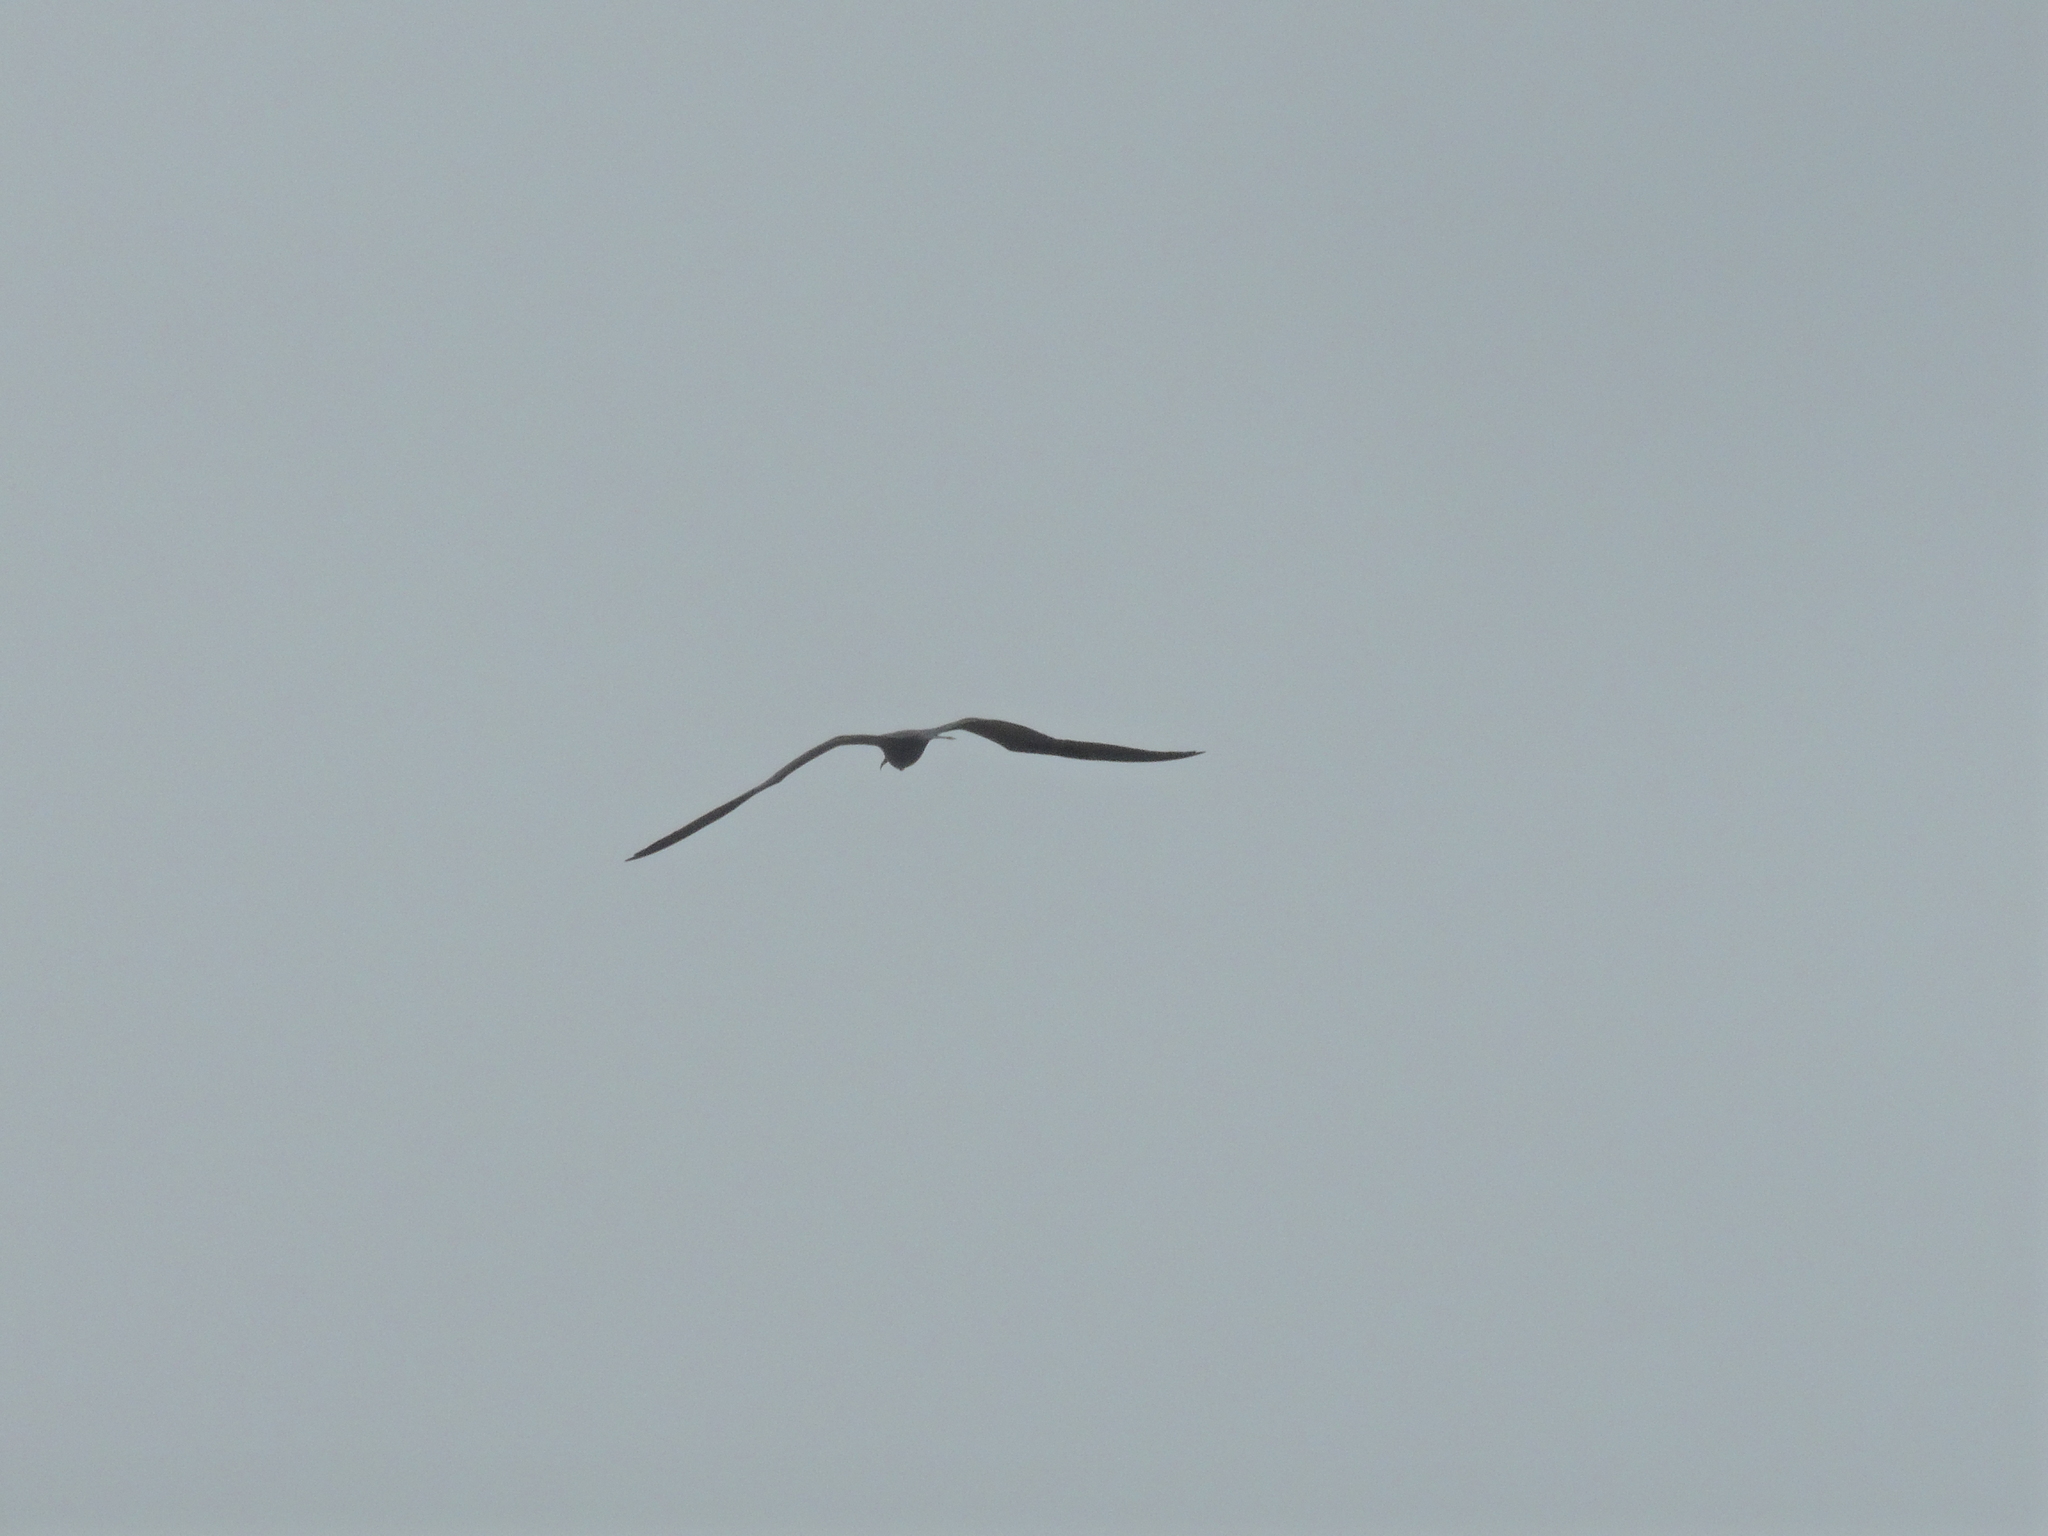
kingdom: Animalia
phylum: Chordata
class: Aves
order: Suliformes
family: Fregatidae
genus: Fregata
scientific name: Fregata magnificens
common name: Magnificent frigatebird
